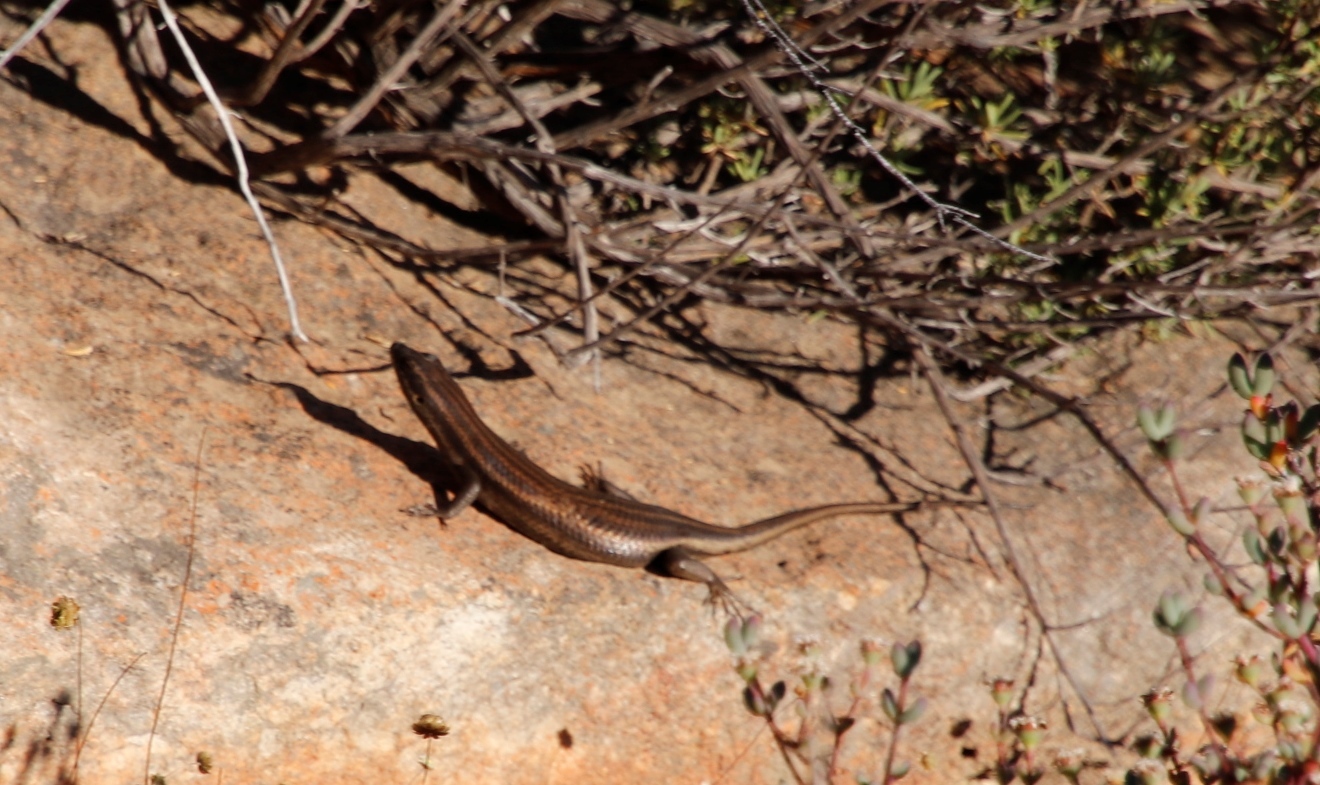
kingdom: Animalia
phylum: Chordata
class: Squamata
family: Scincidae
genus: Trachylepis
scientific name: Trachylepis sulcata
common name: Western rock skink
